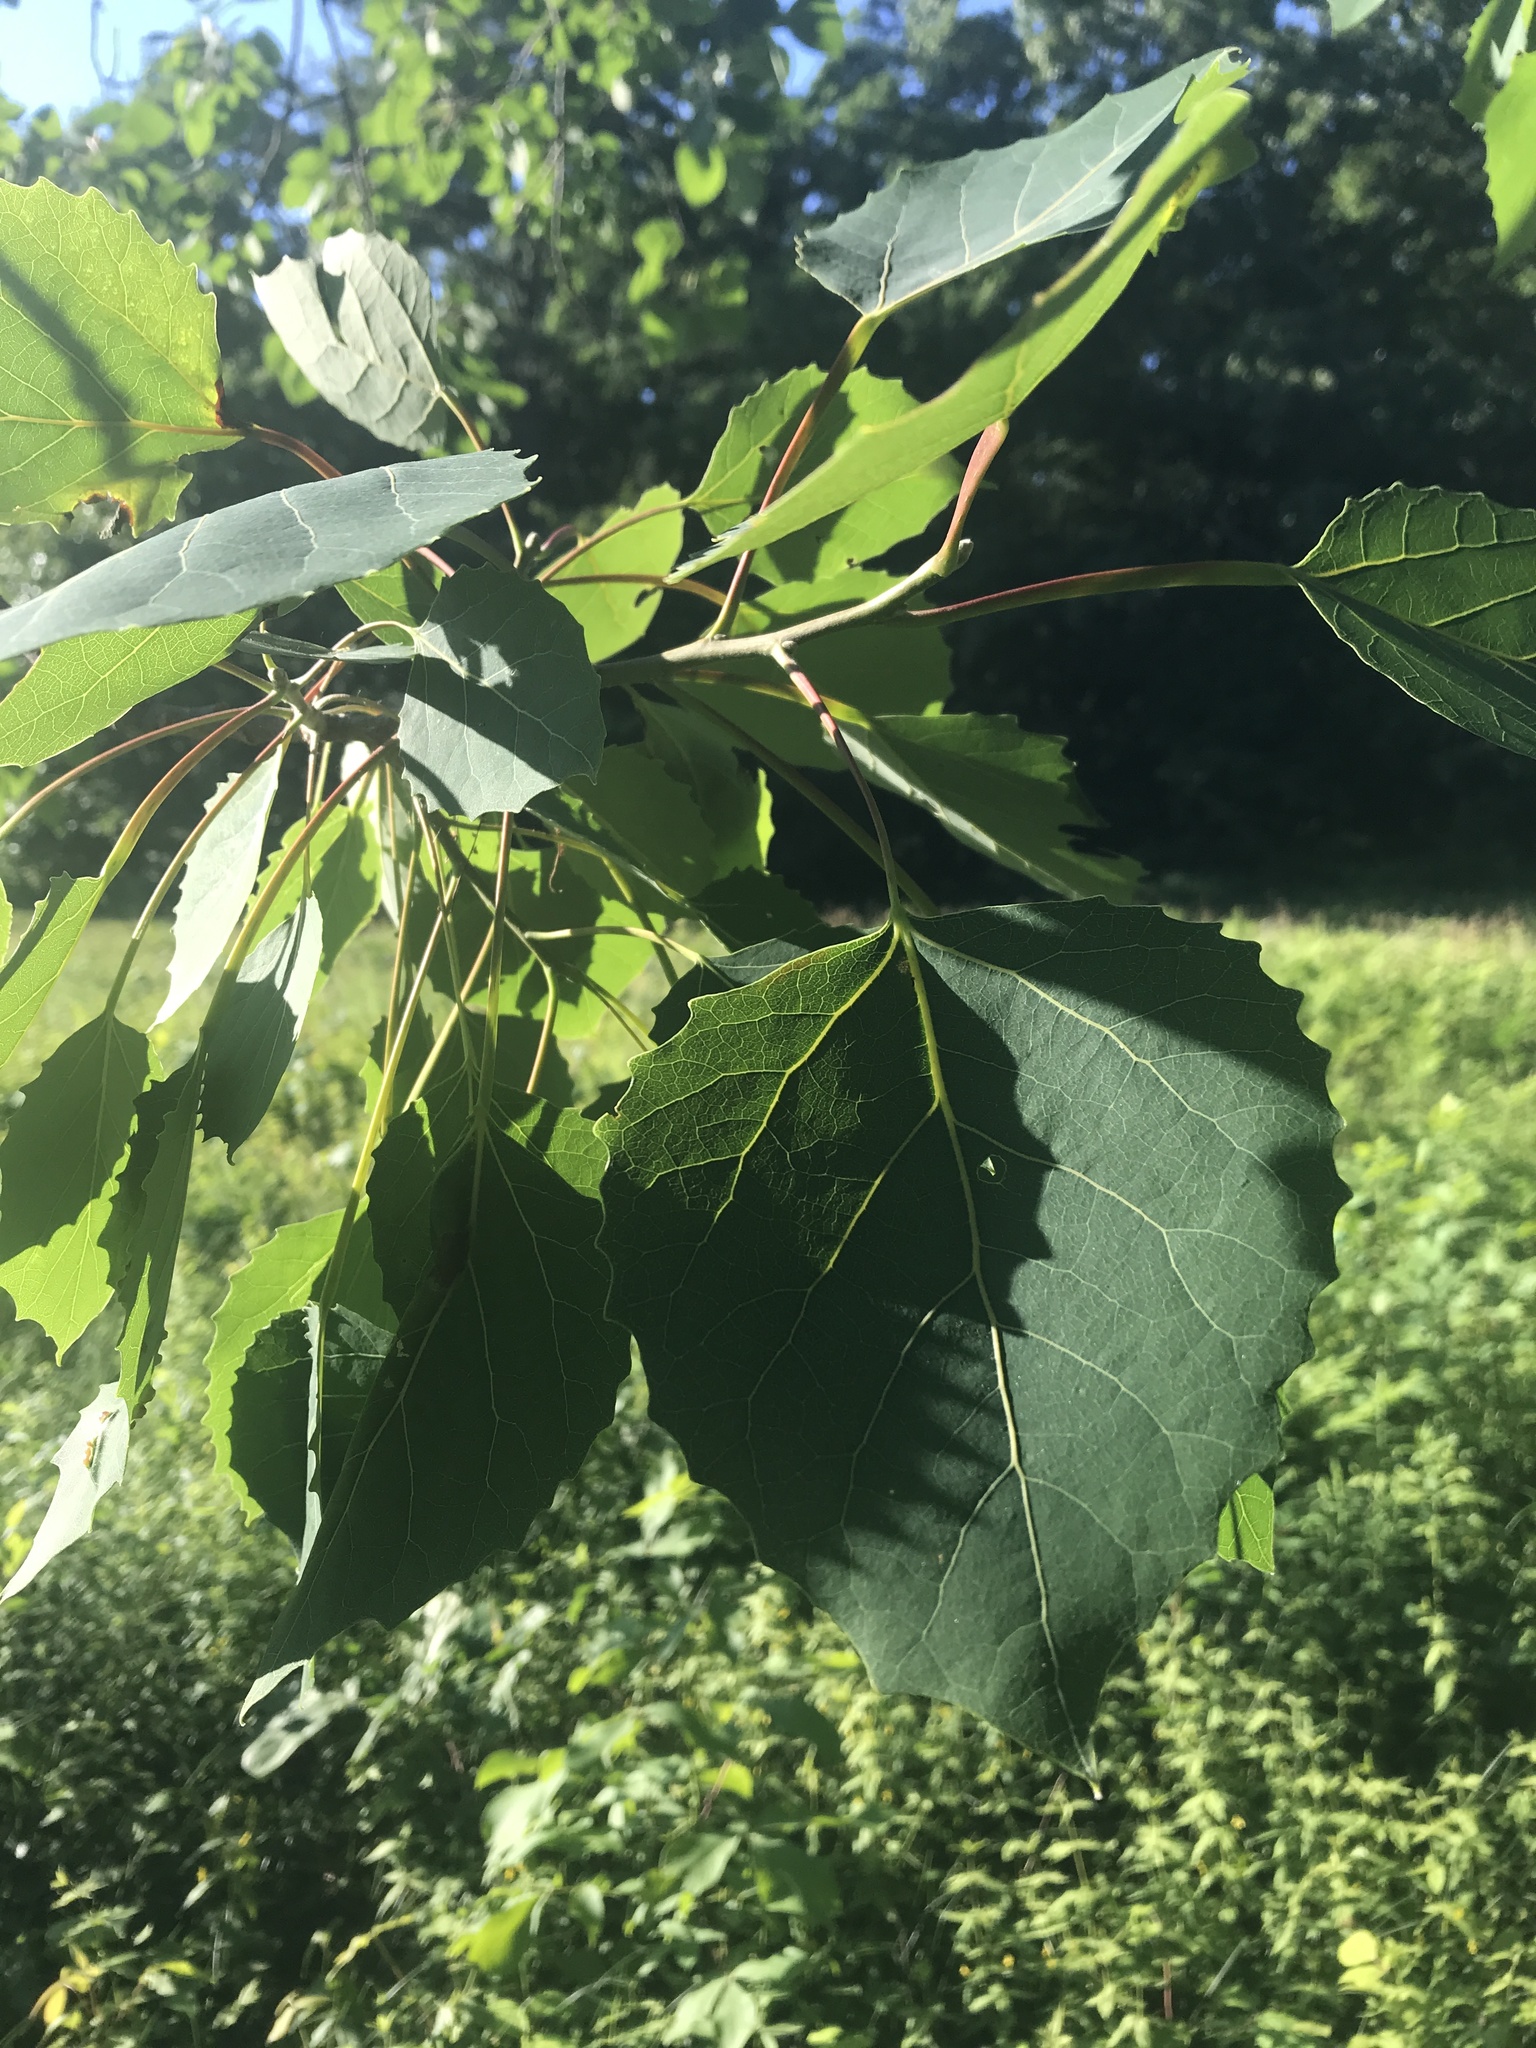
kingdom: Plantae
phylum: Tracheophyta
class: Magnoliopsida
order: Malpighiales
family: Salicaceae
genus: Populus
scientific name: Populus grandidentata
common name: Bigtooth aspen
